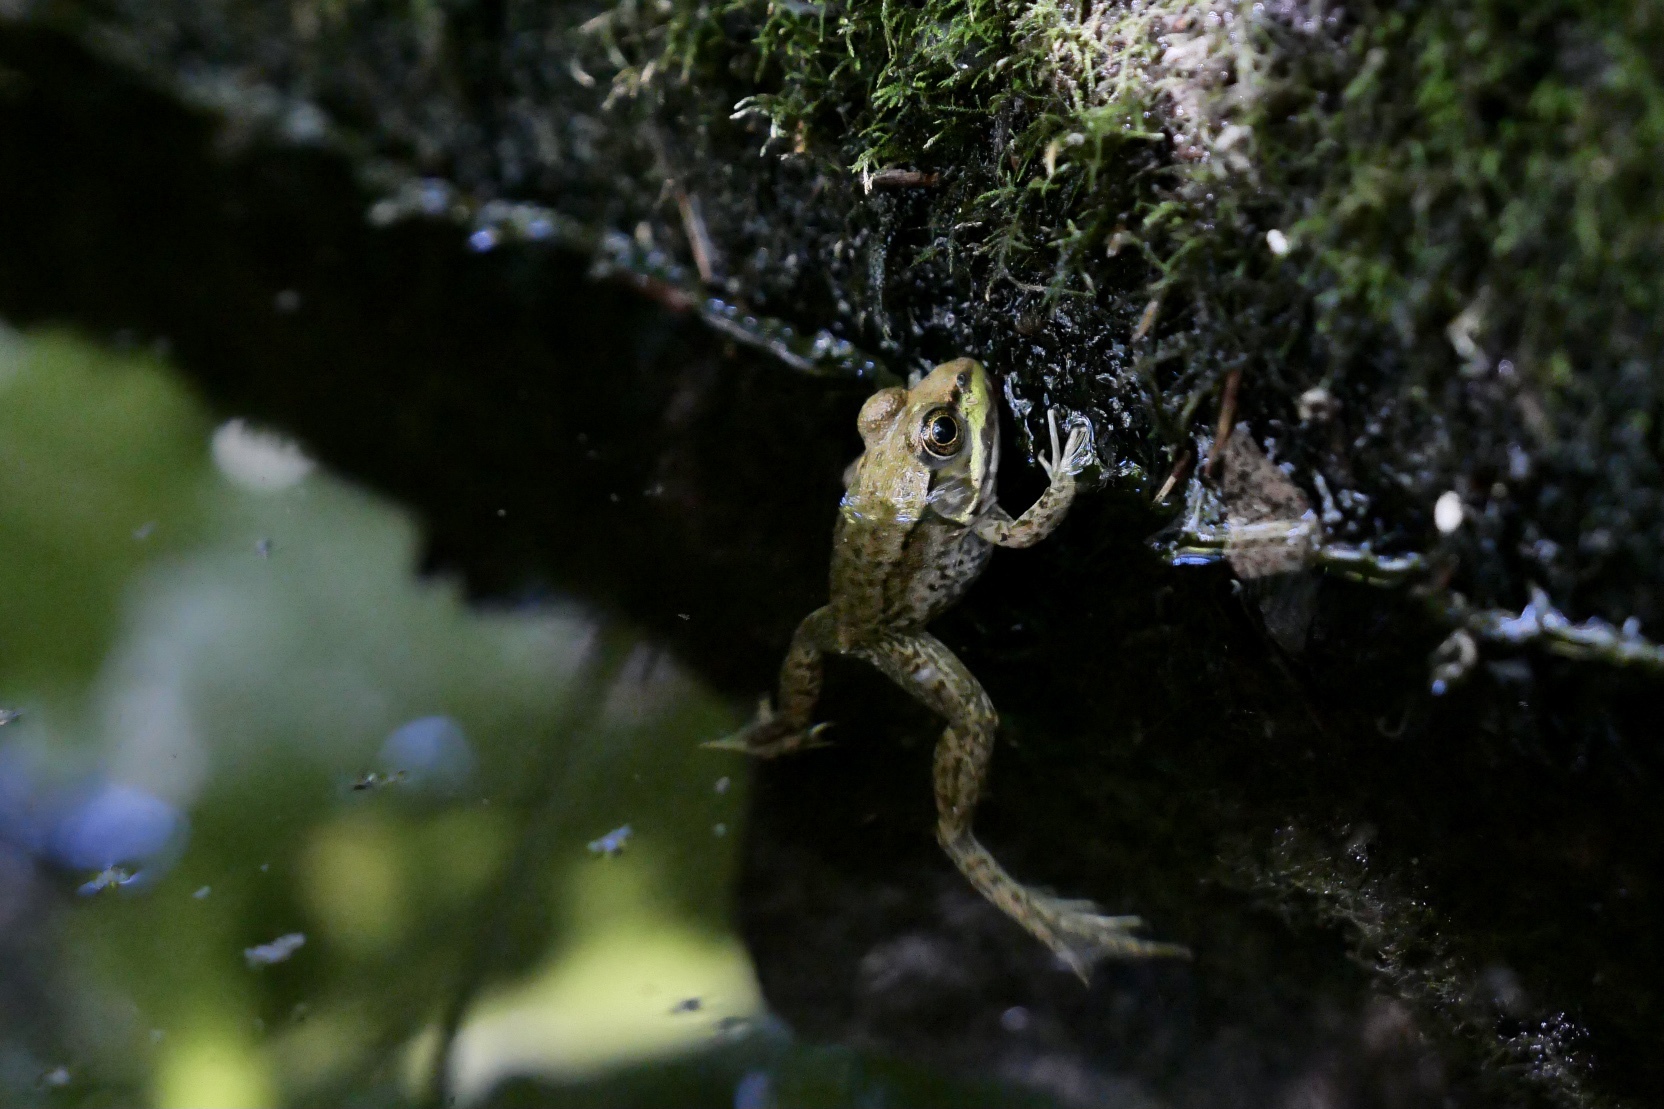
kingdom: Animalia
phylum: Chordata
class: Amphibia
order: Anura
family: Ranidae
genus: Lithobates
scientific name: Lithobates clamitans
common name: Green frog
